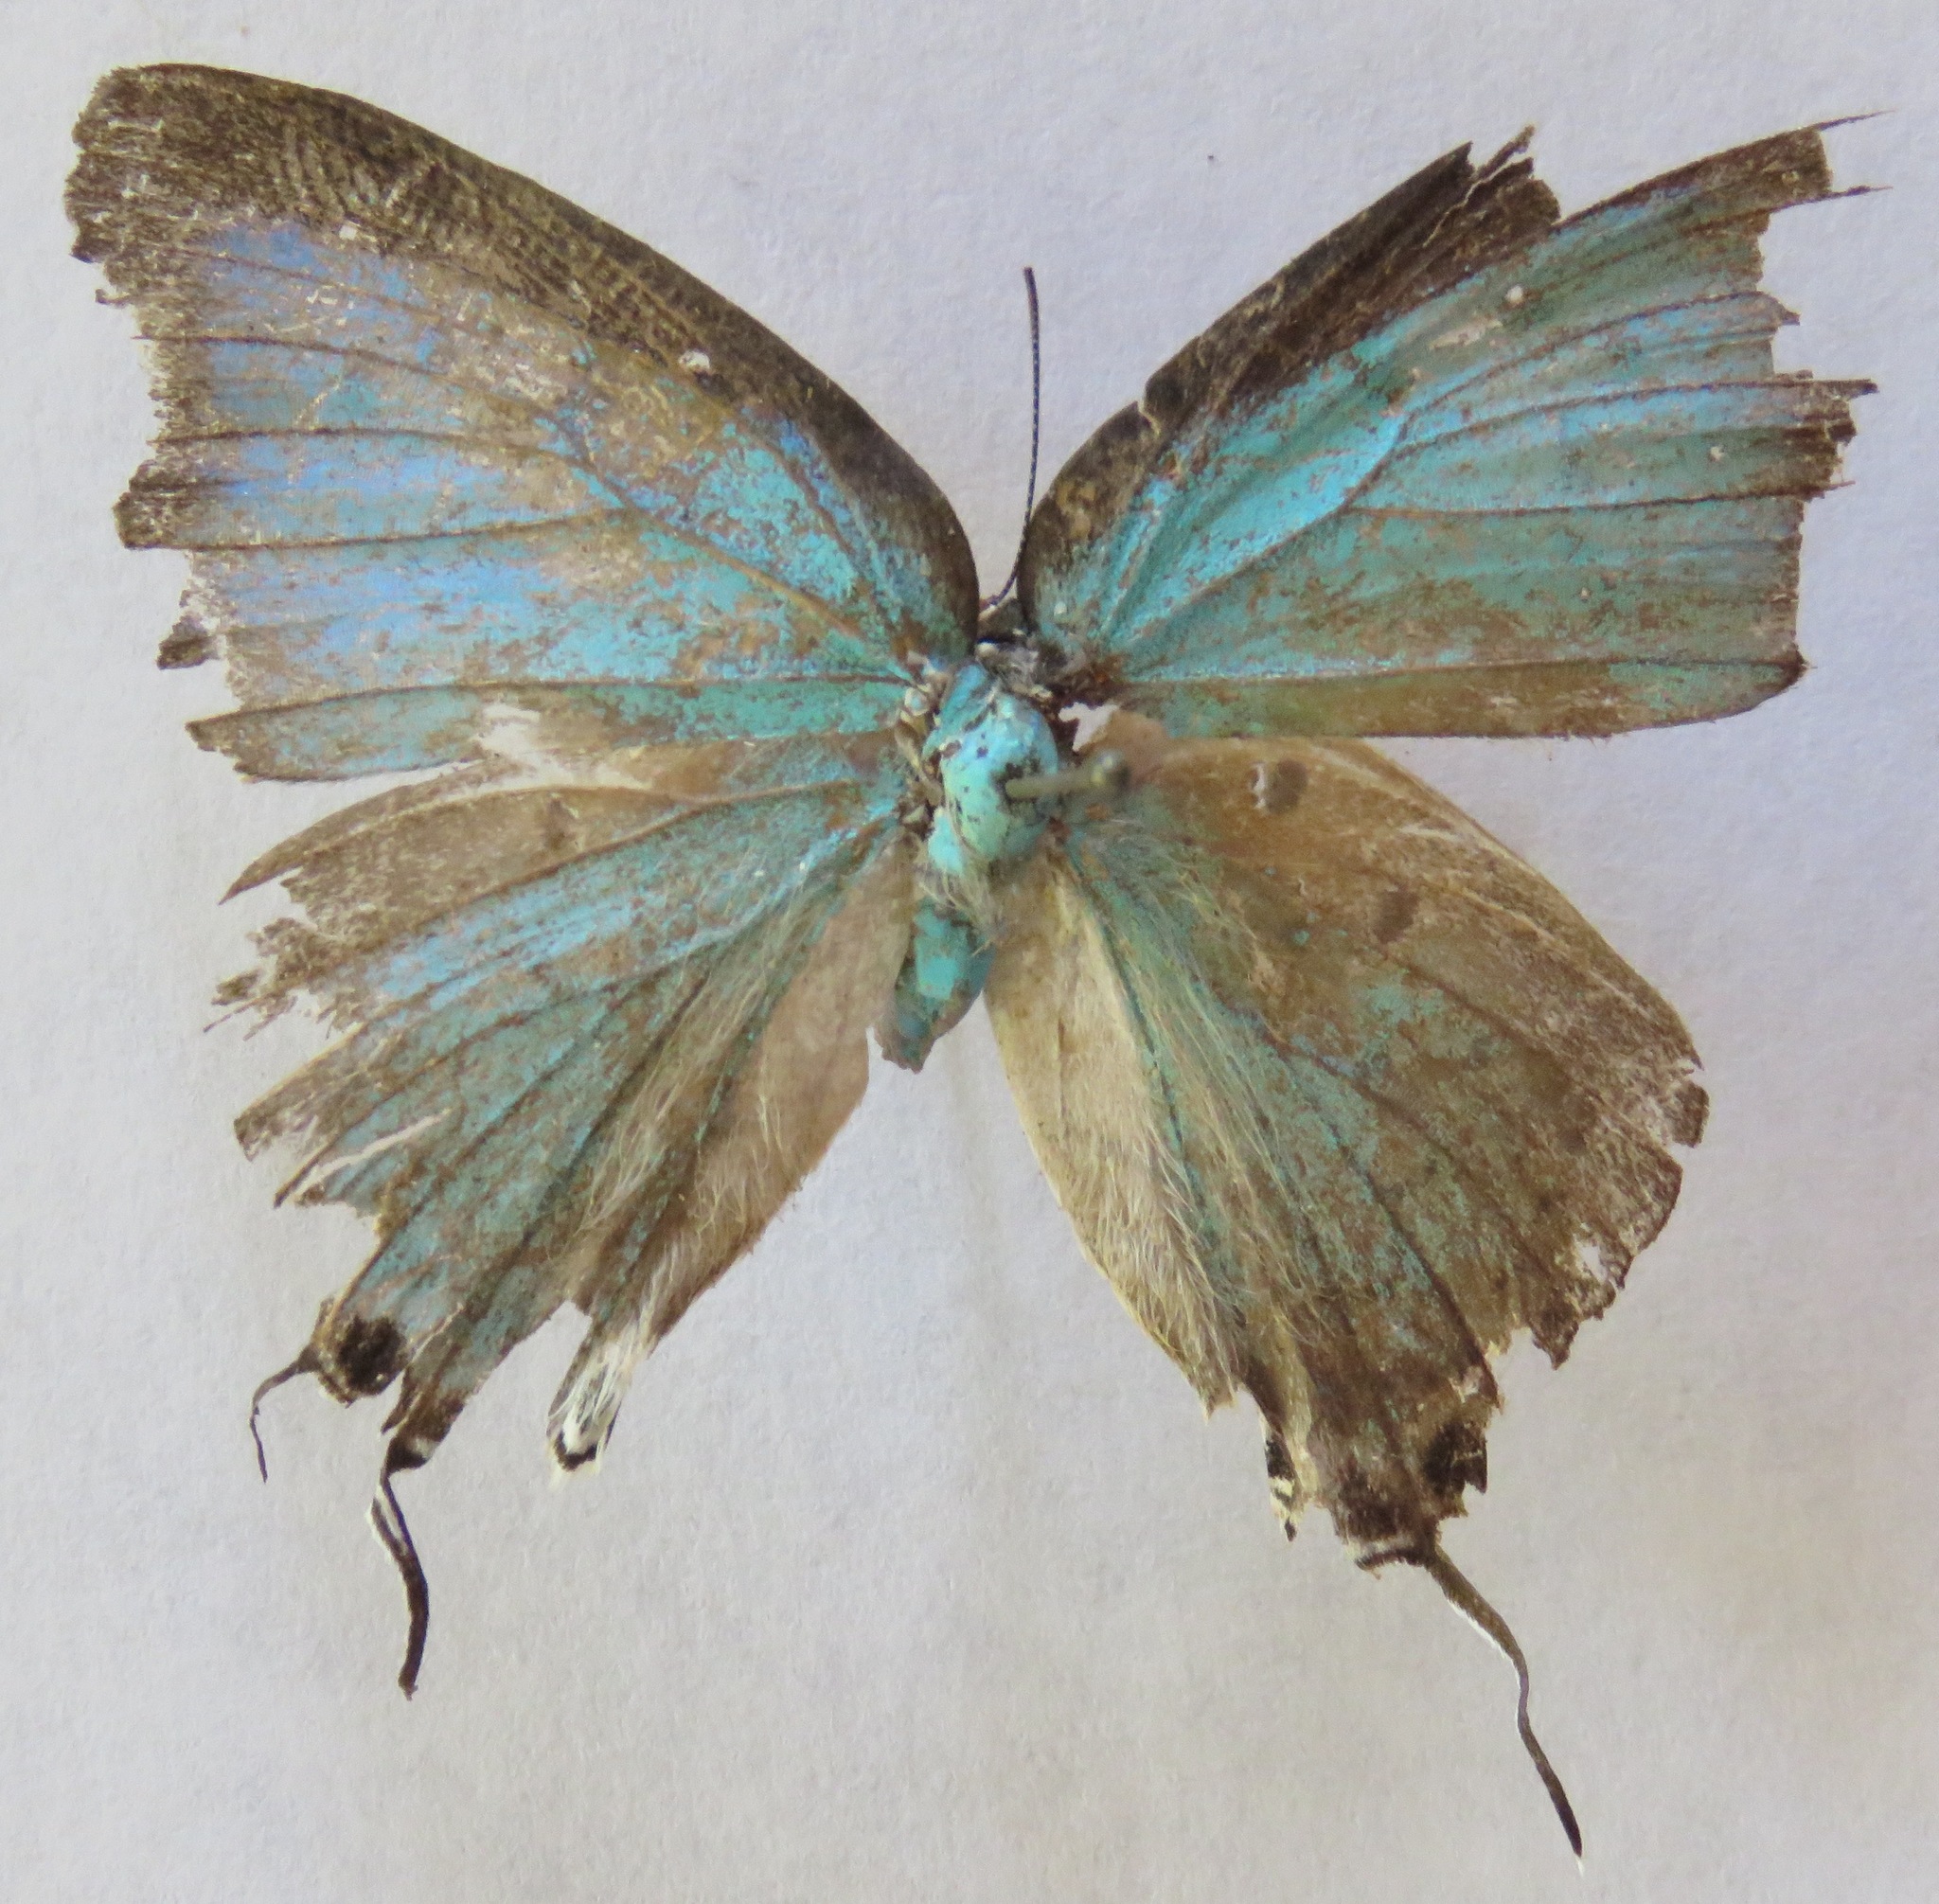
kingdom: Animalia
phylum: Arthropoda
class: Insecta
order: Lepidoptera
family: Lycaenidae
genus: Pseudolycaena
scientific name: Pseudolycaena damo
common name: Sky-blue hairstreak
